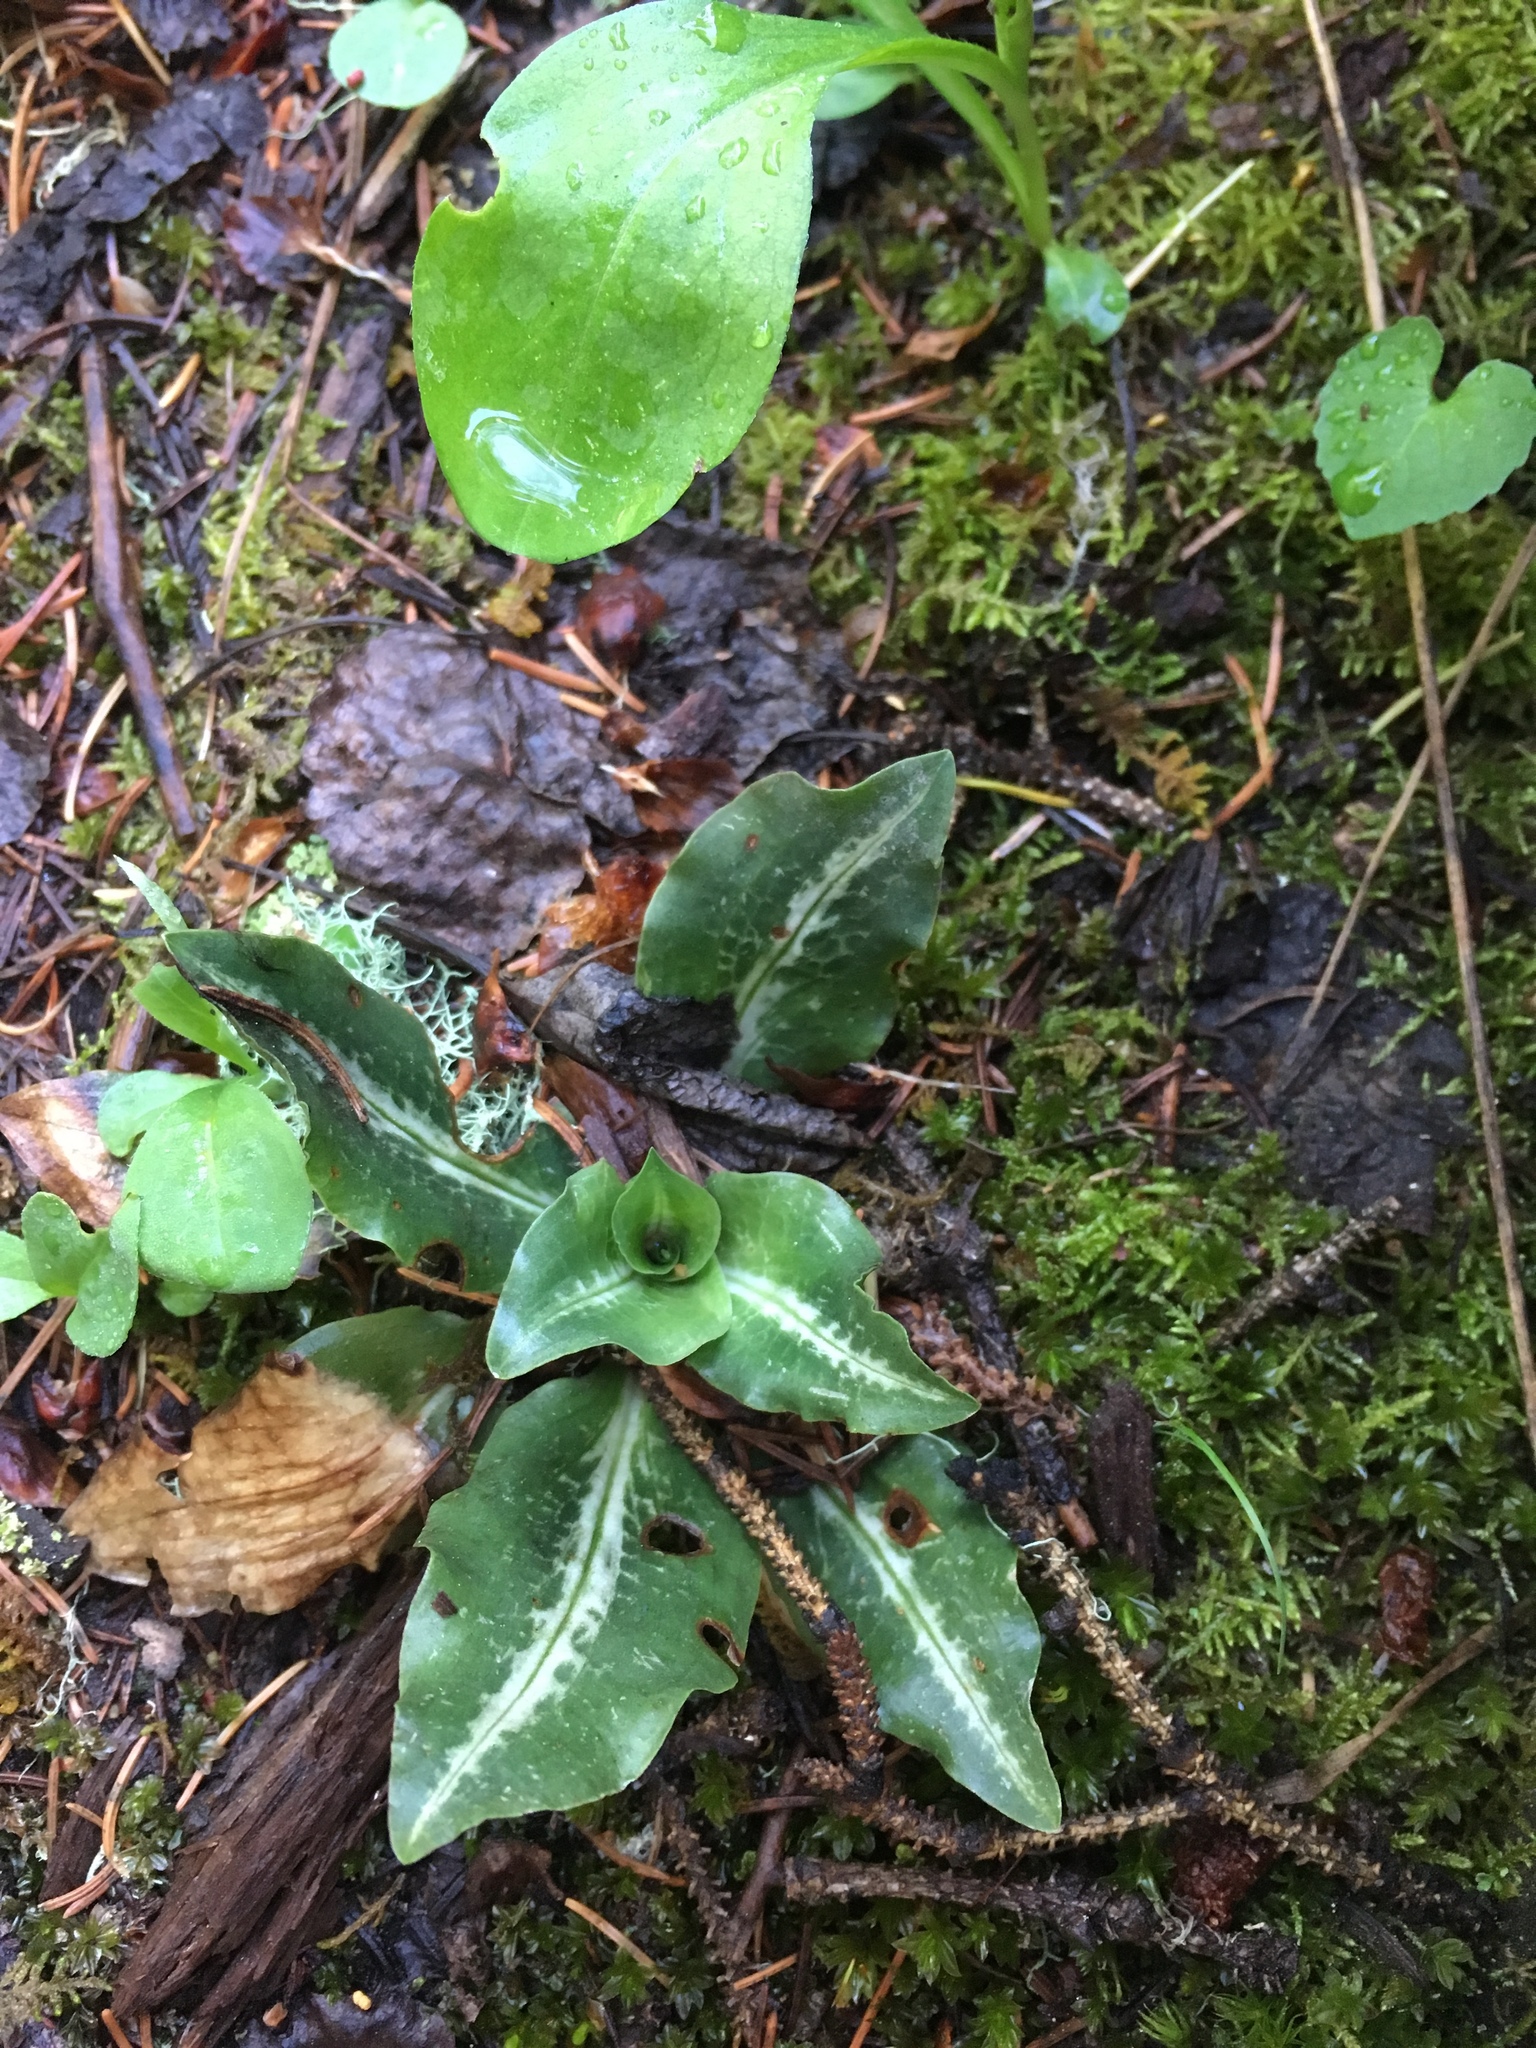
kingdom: Plantae
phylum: Tracheophyta
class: Liliopsida
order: Asparagales
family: Orchidaceae
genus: Goodyera
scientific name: Goodyera oblongifolia
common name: Giant rattlesnake-plantain
